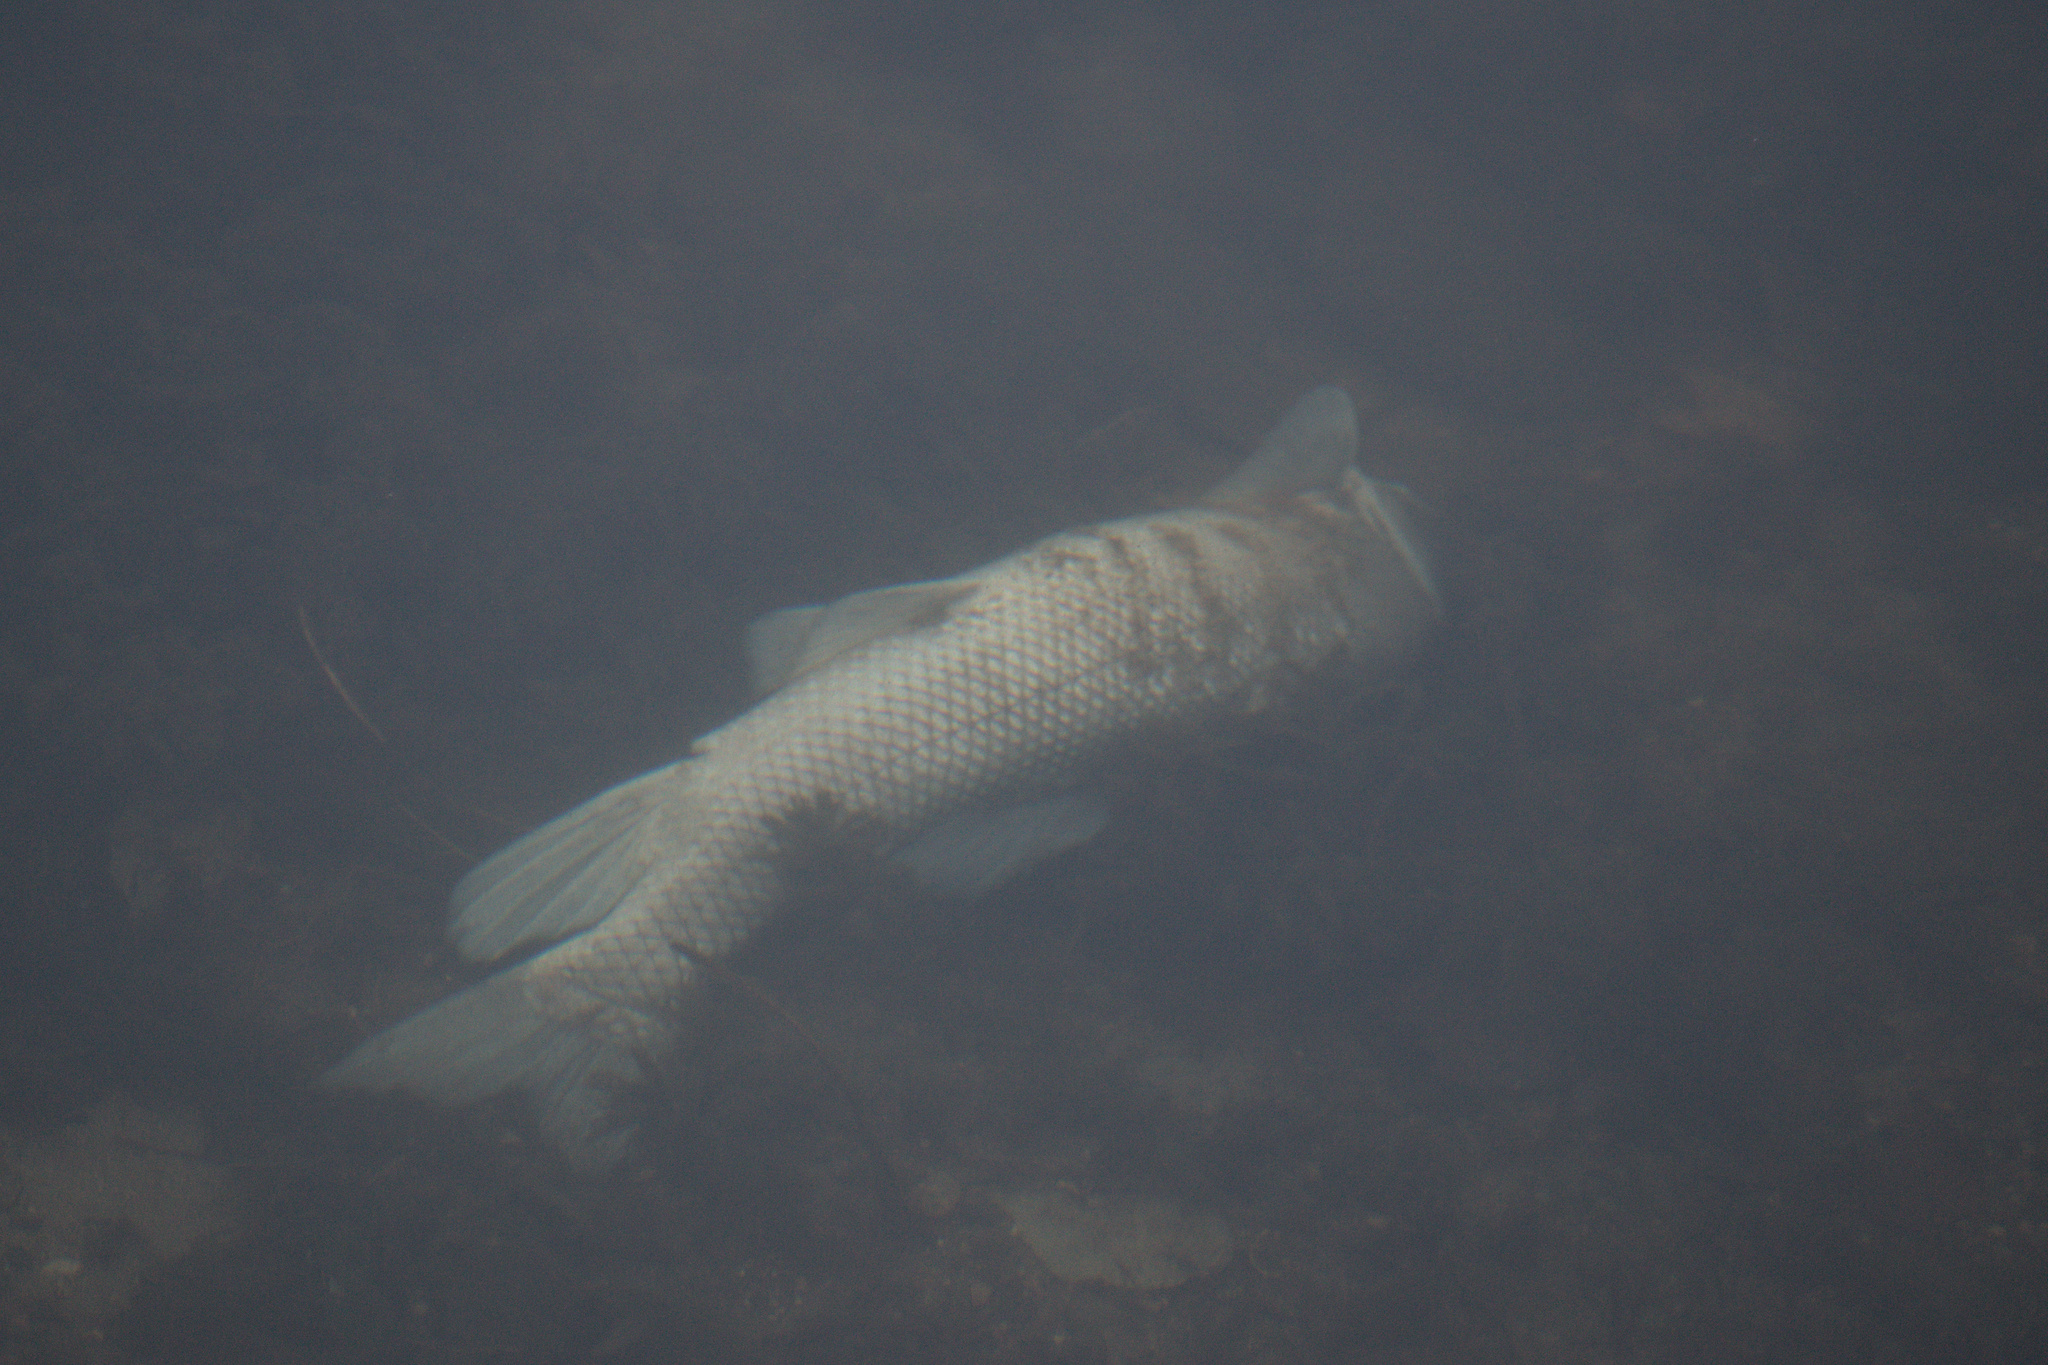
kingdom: Animalia
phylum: Chordata
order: Cypriniformes
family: Catostomidae
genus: Catostomus
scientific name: Catostomus commersonii
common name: White sucker
